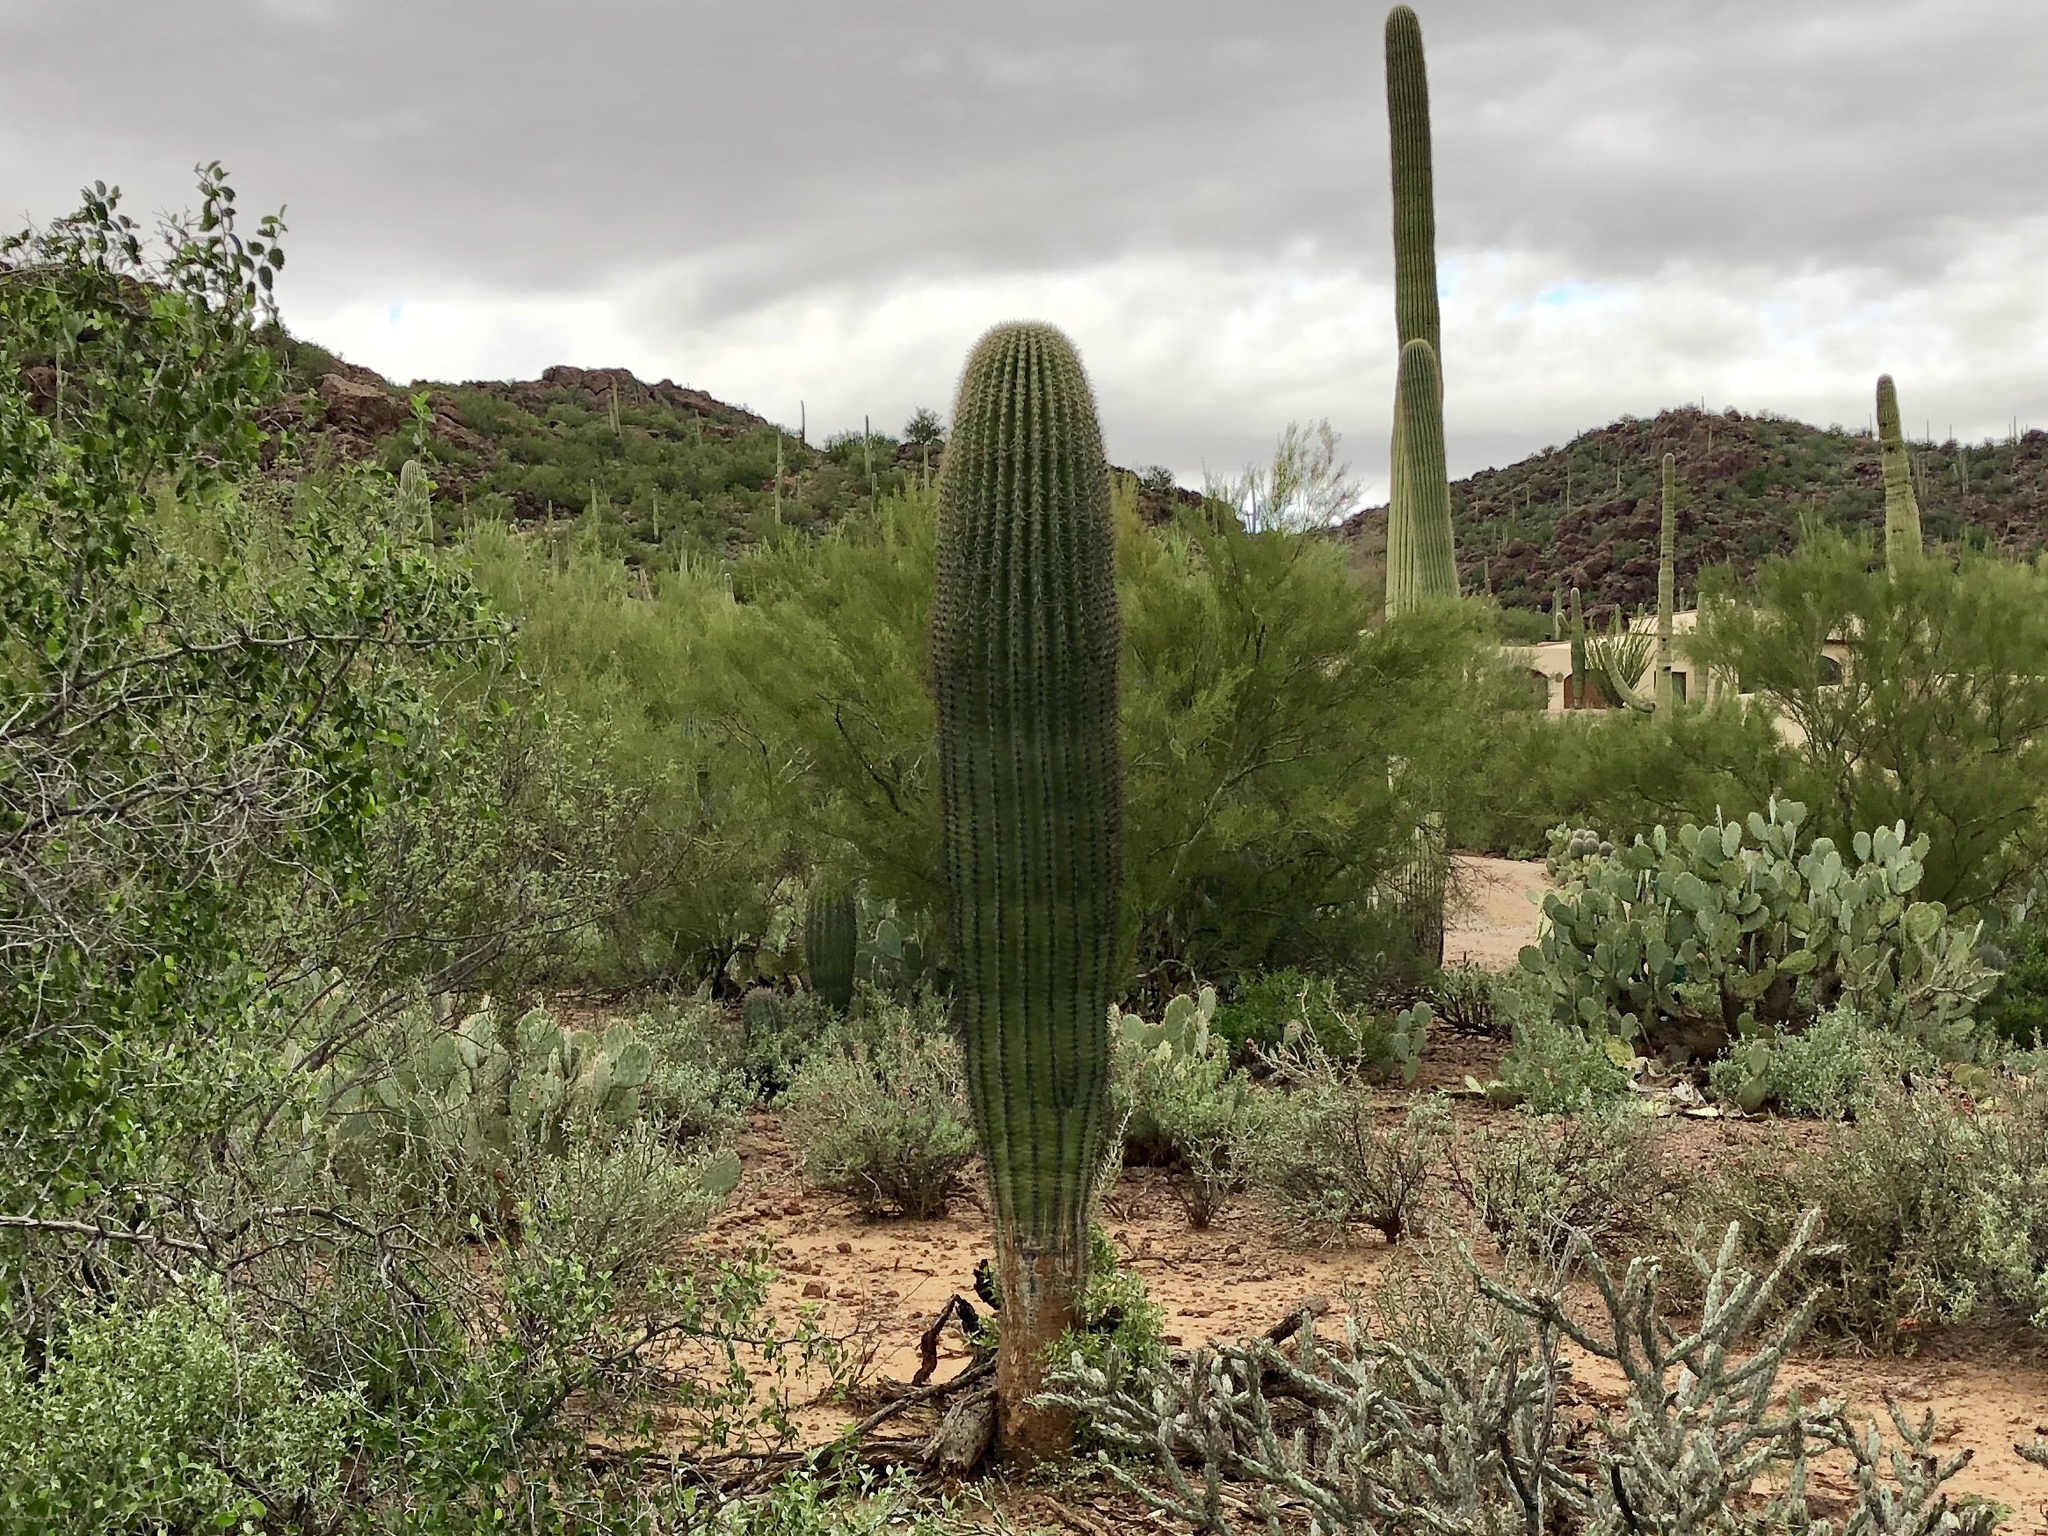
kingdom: Plantae
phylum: Tracheophyta
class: Magnoliopsida
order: Caryophyllales
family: Cactaceae
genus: Carnegiea
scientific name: Carnegiea gigantea
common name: Saguaro
